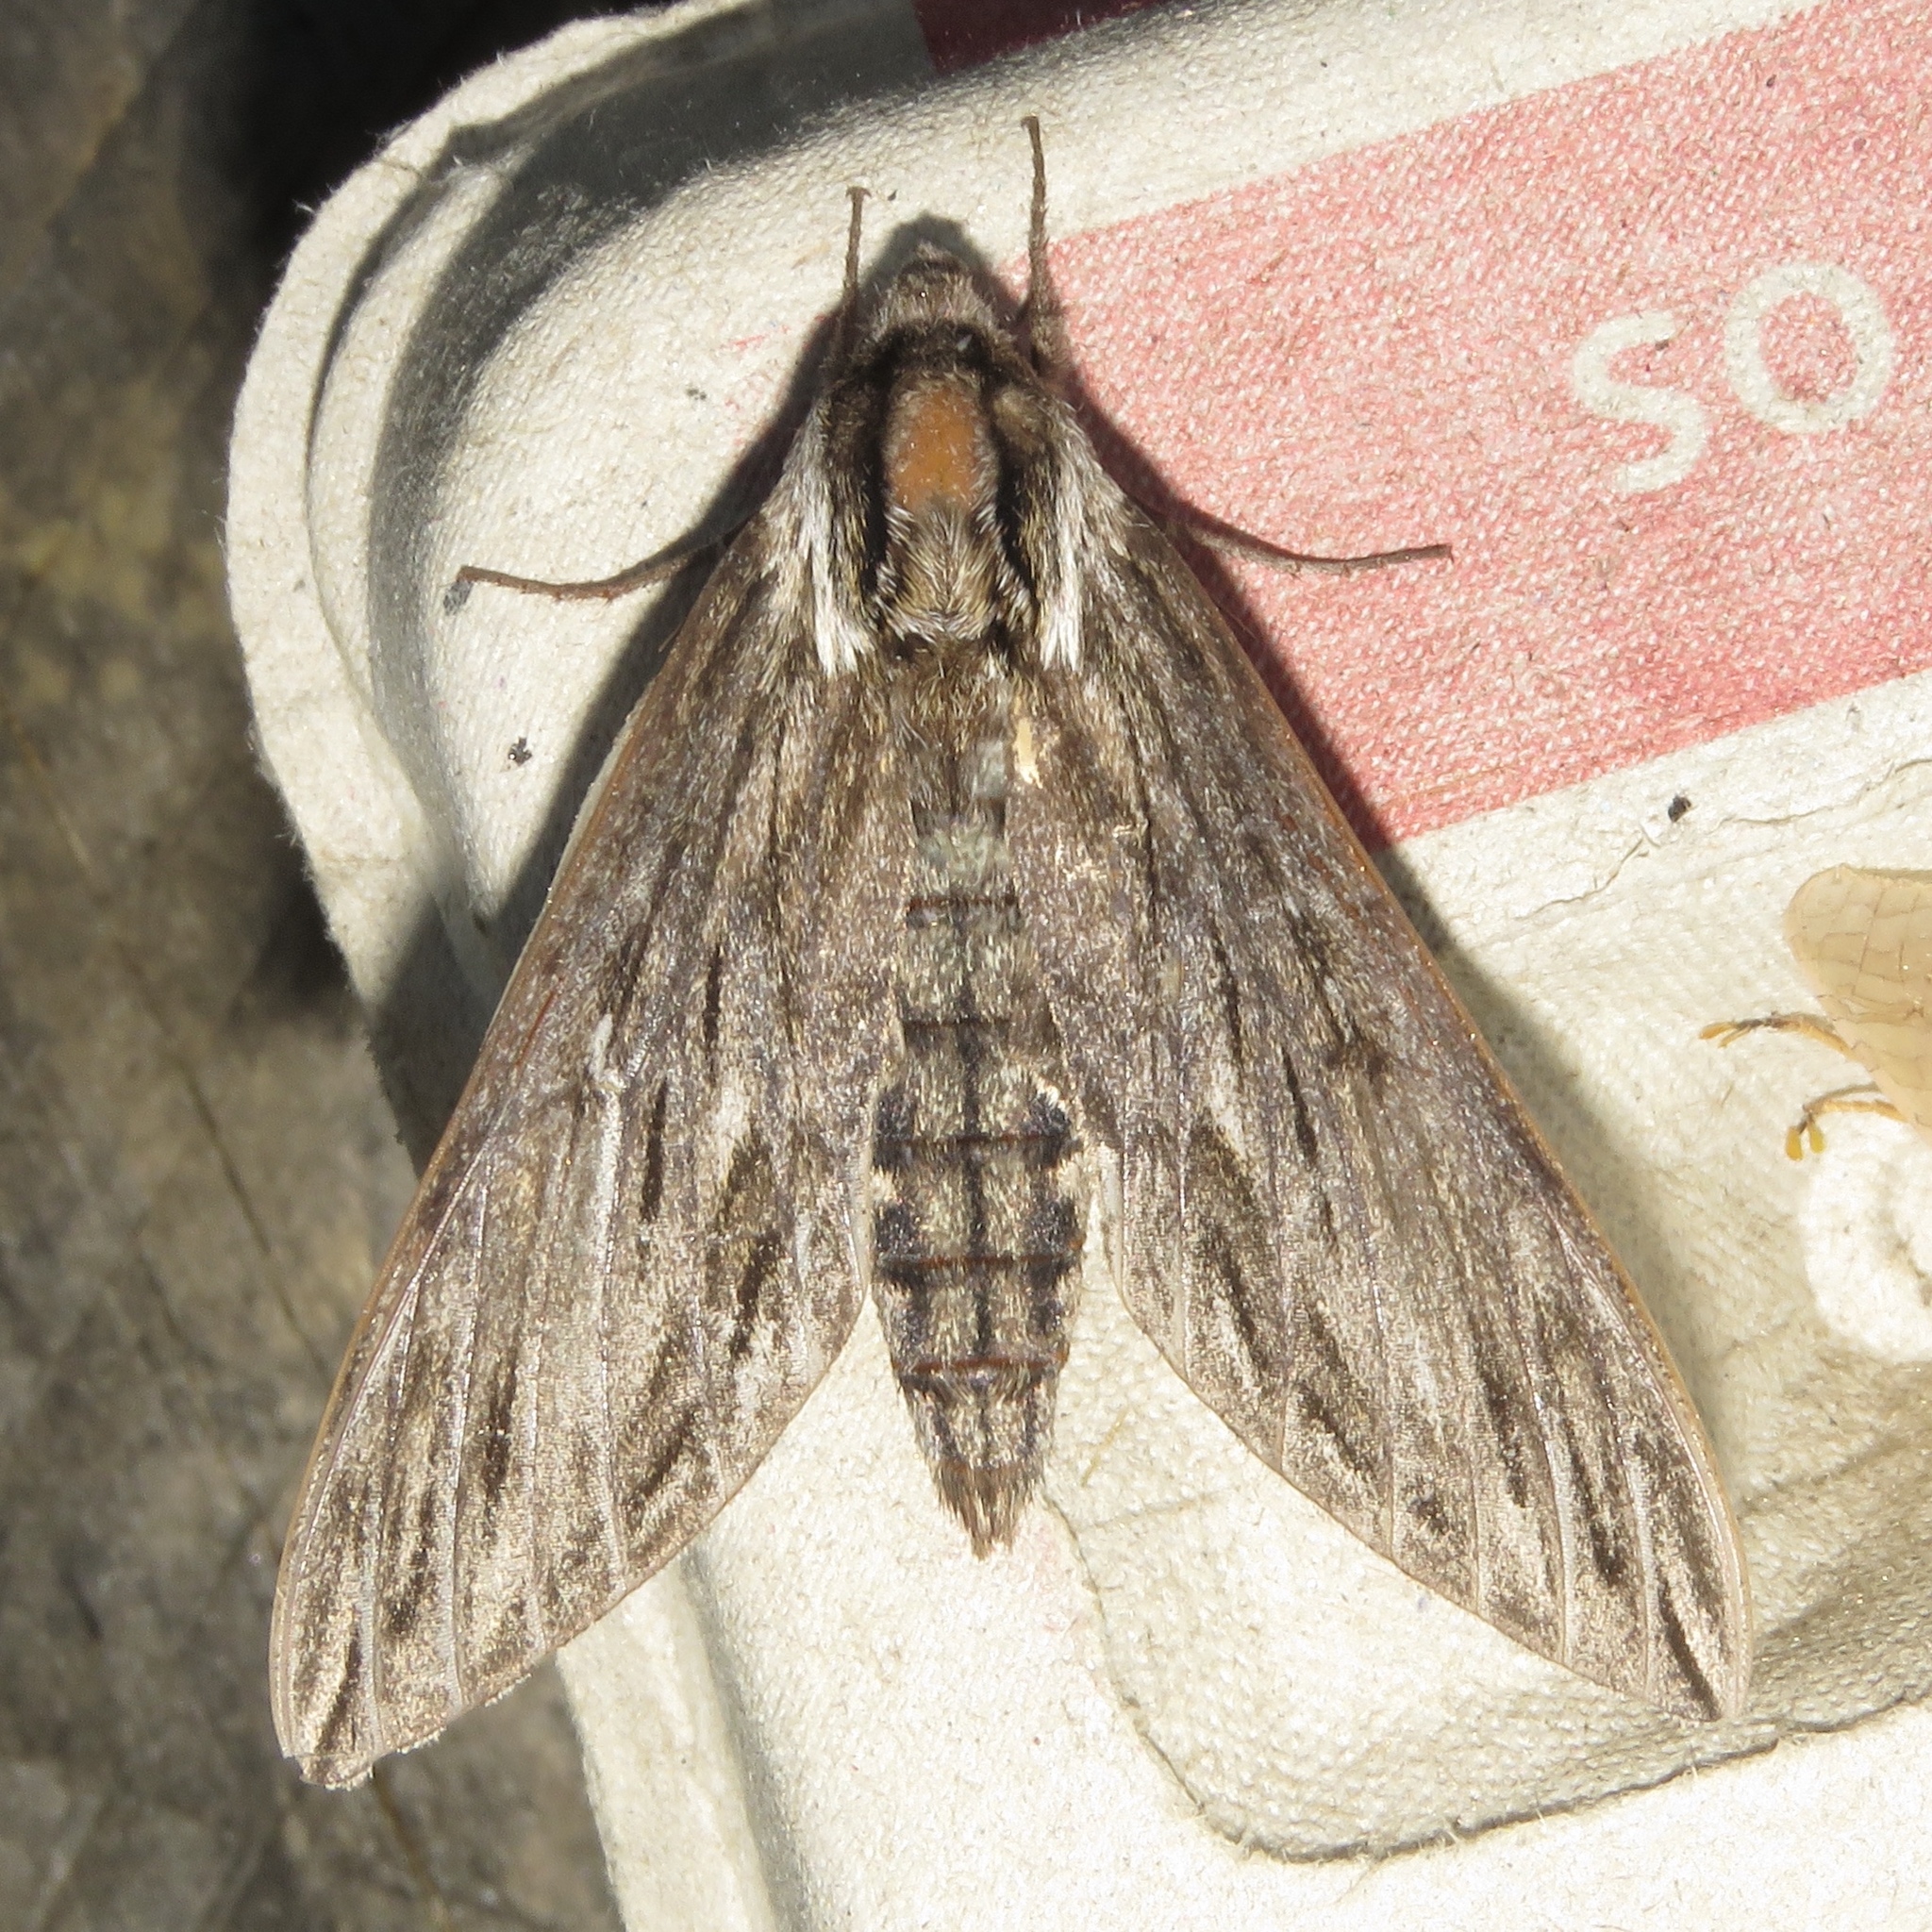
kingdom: Animalia
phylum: Arthropoda
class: Insecta
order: Lepidoptera
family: Sphingidae
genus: Sphinx
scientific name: Sphinx canadensis
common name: Canadian sphinx
